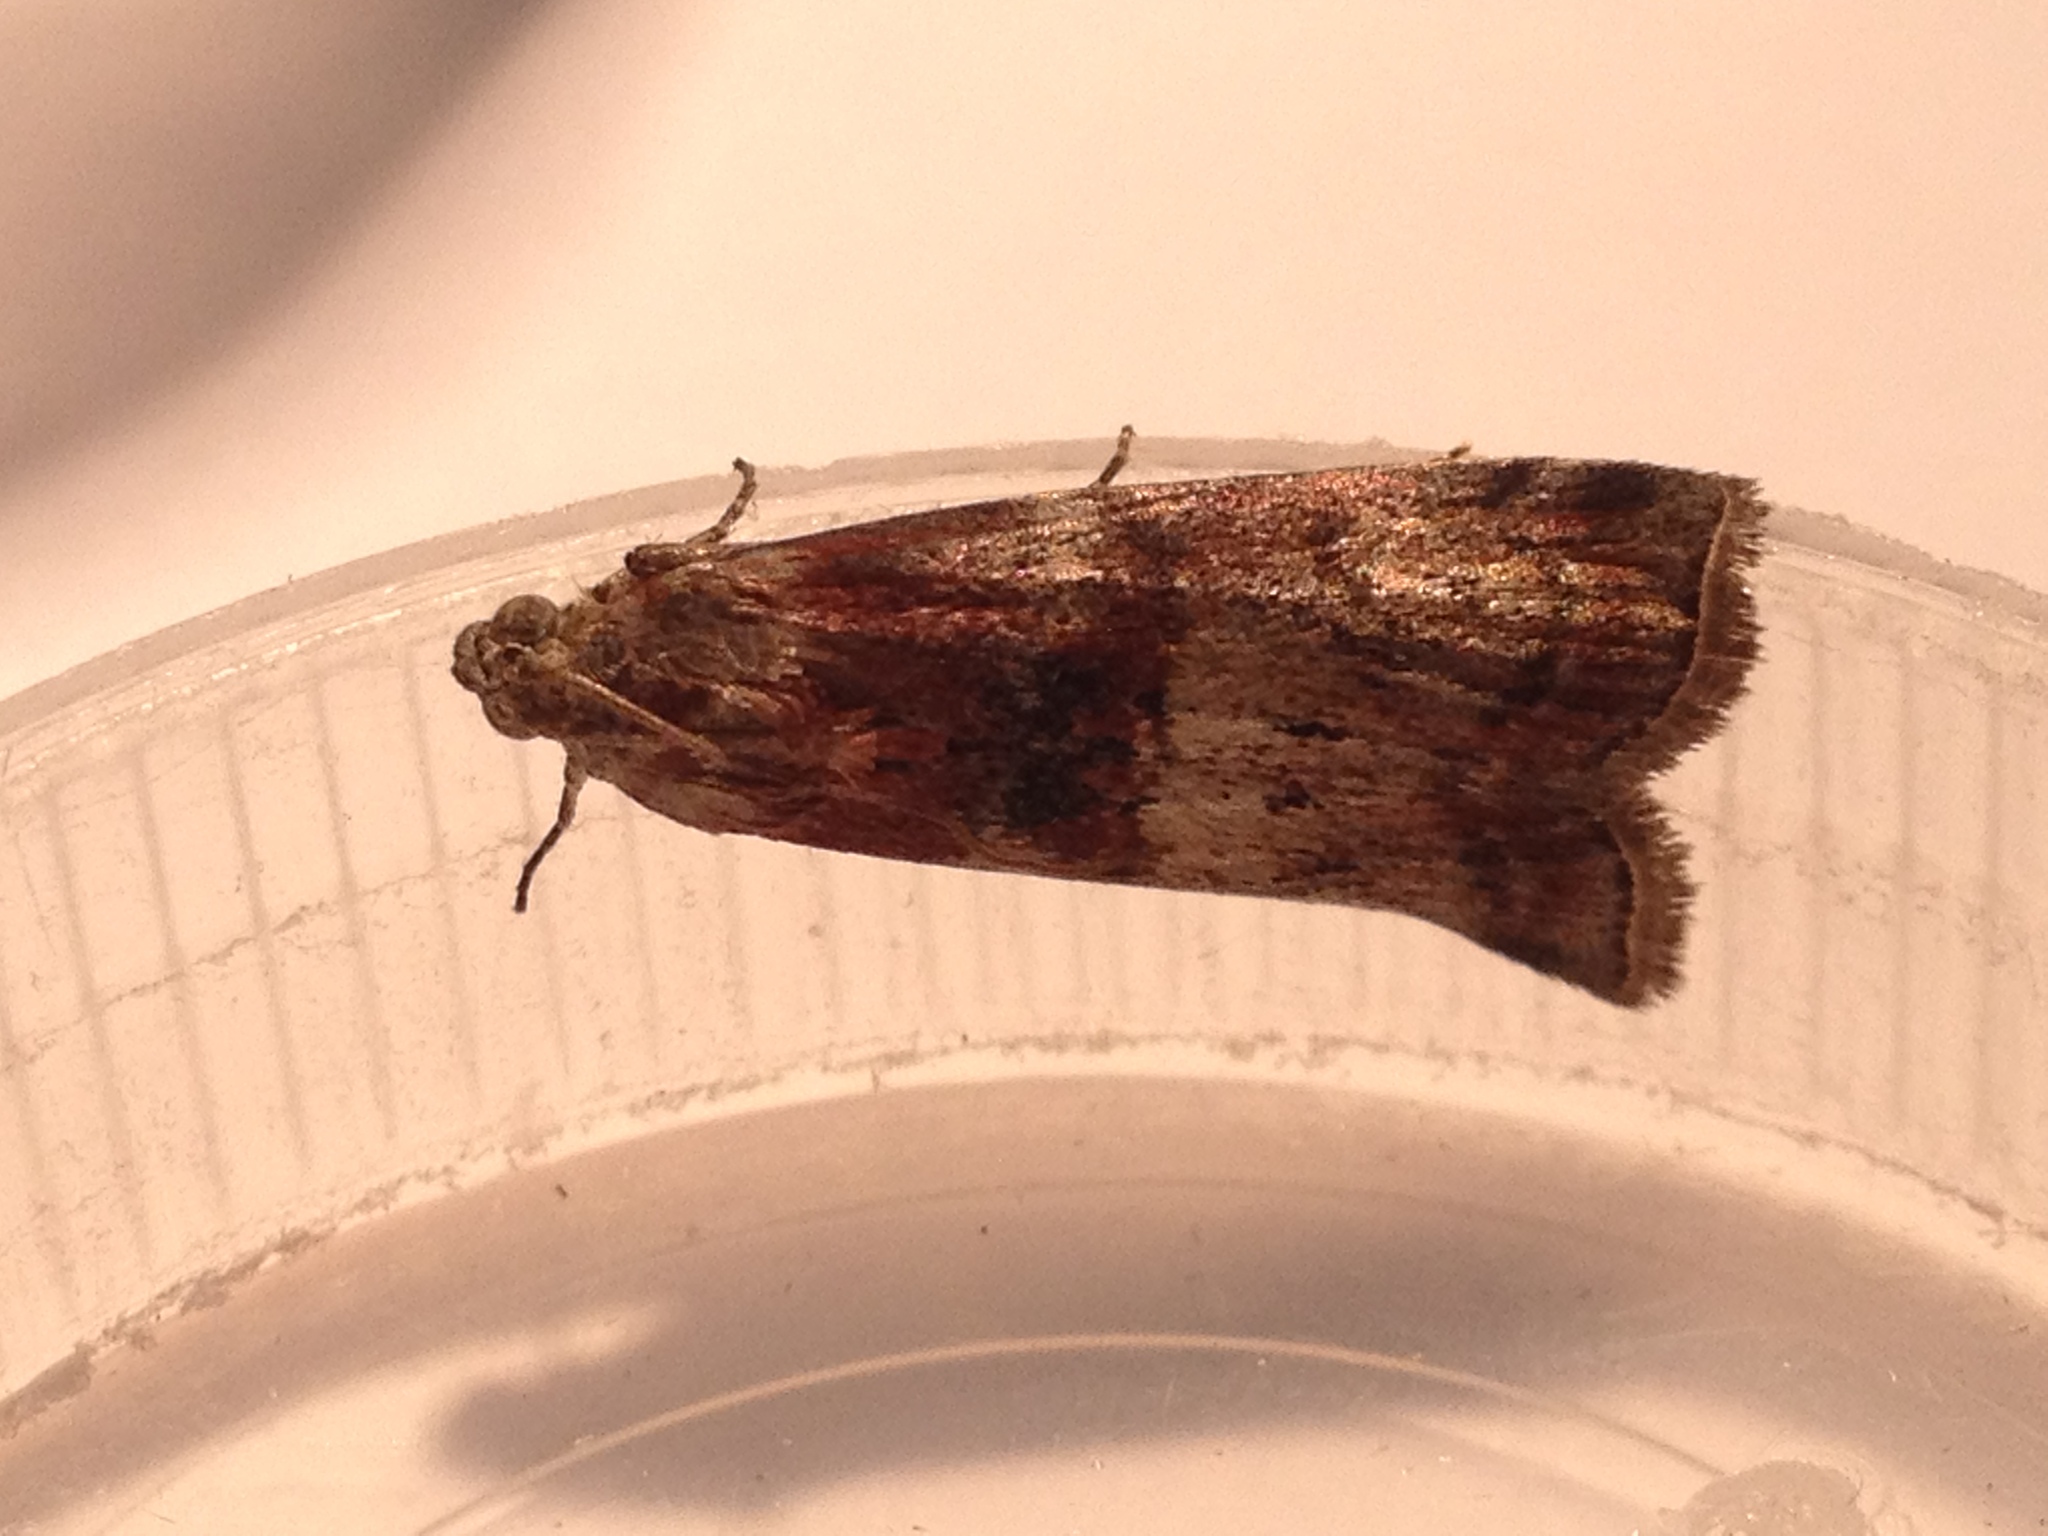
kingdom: Animalia
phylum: Arthropoda
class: Insecta
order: Lepidoptera
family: Pyralidae
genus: Phycita
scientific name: Phycita roborella
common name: Dotted oak knot-horn
